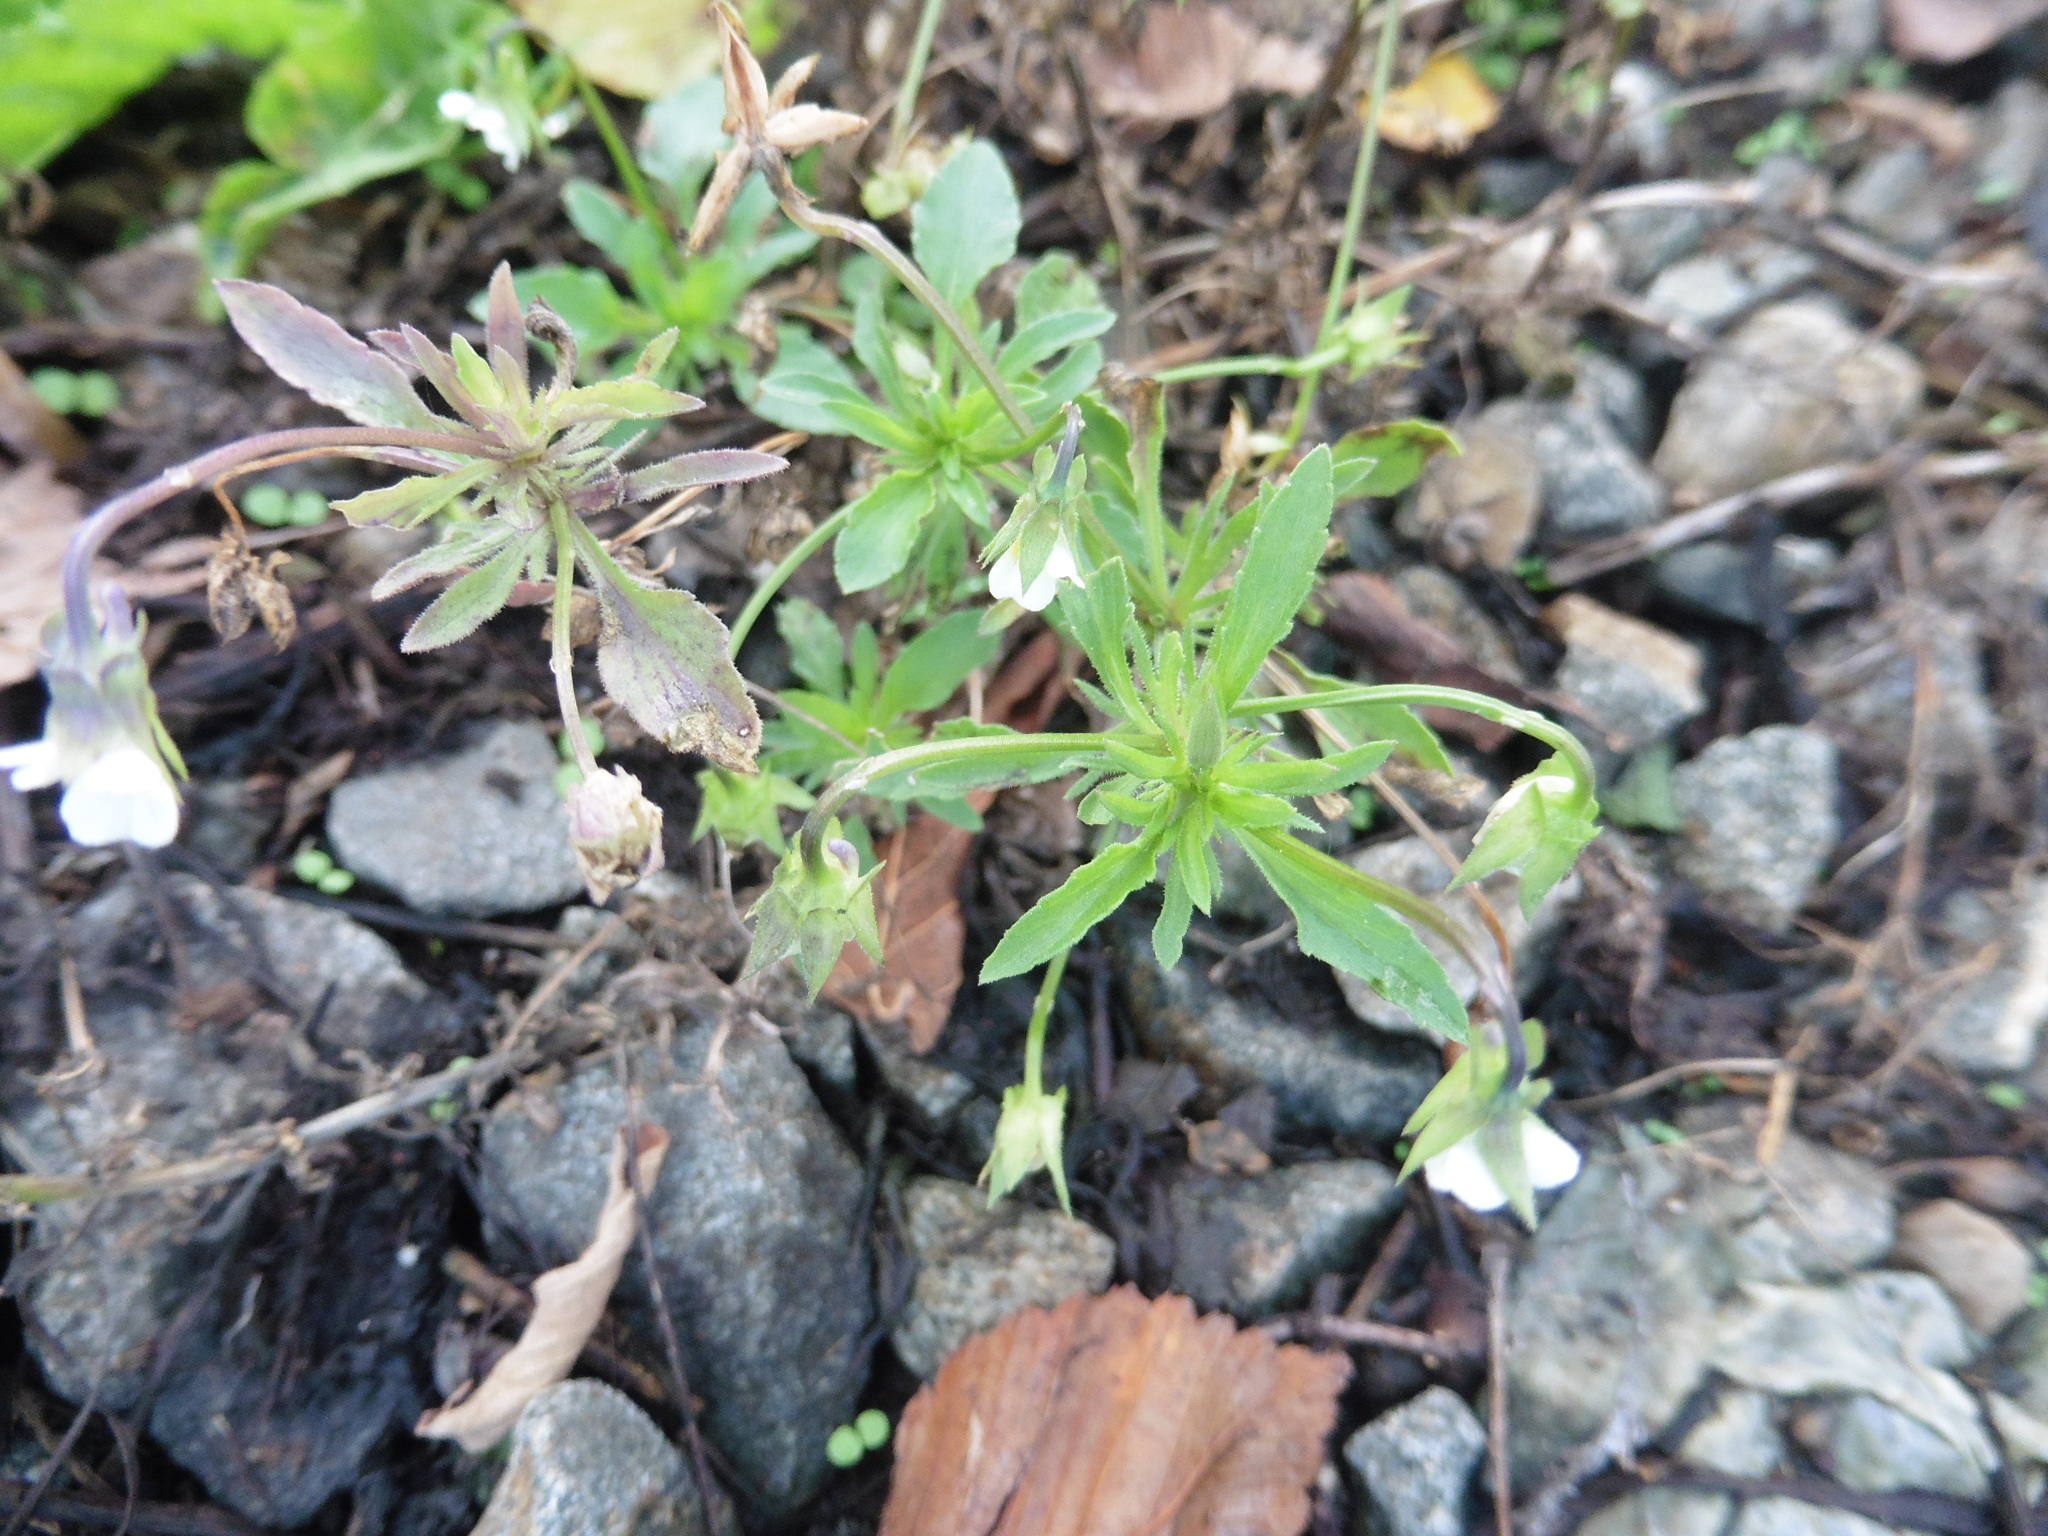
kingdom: Plantae
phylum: Tracheophyta
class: Magnoliopsida
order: Malpighiales
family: Violaceae
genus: Viola
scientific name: Viola arvensis
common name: Field pansy
